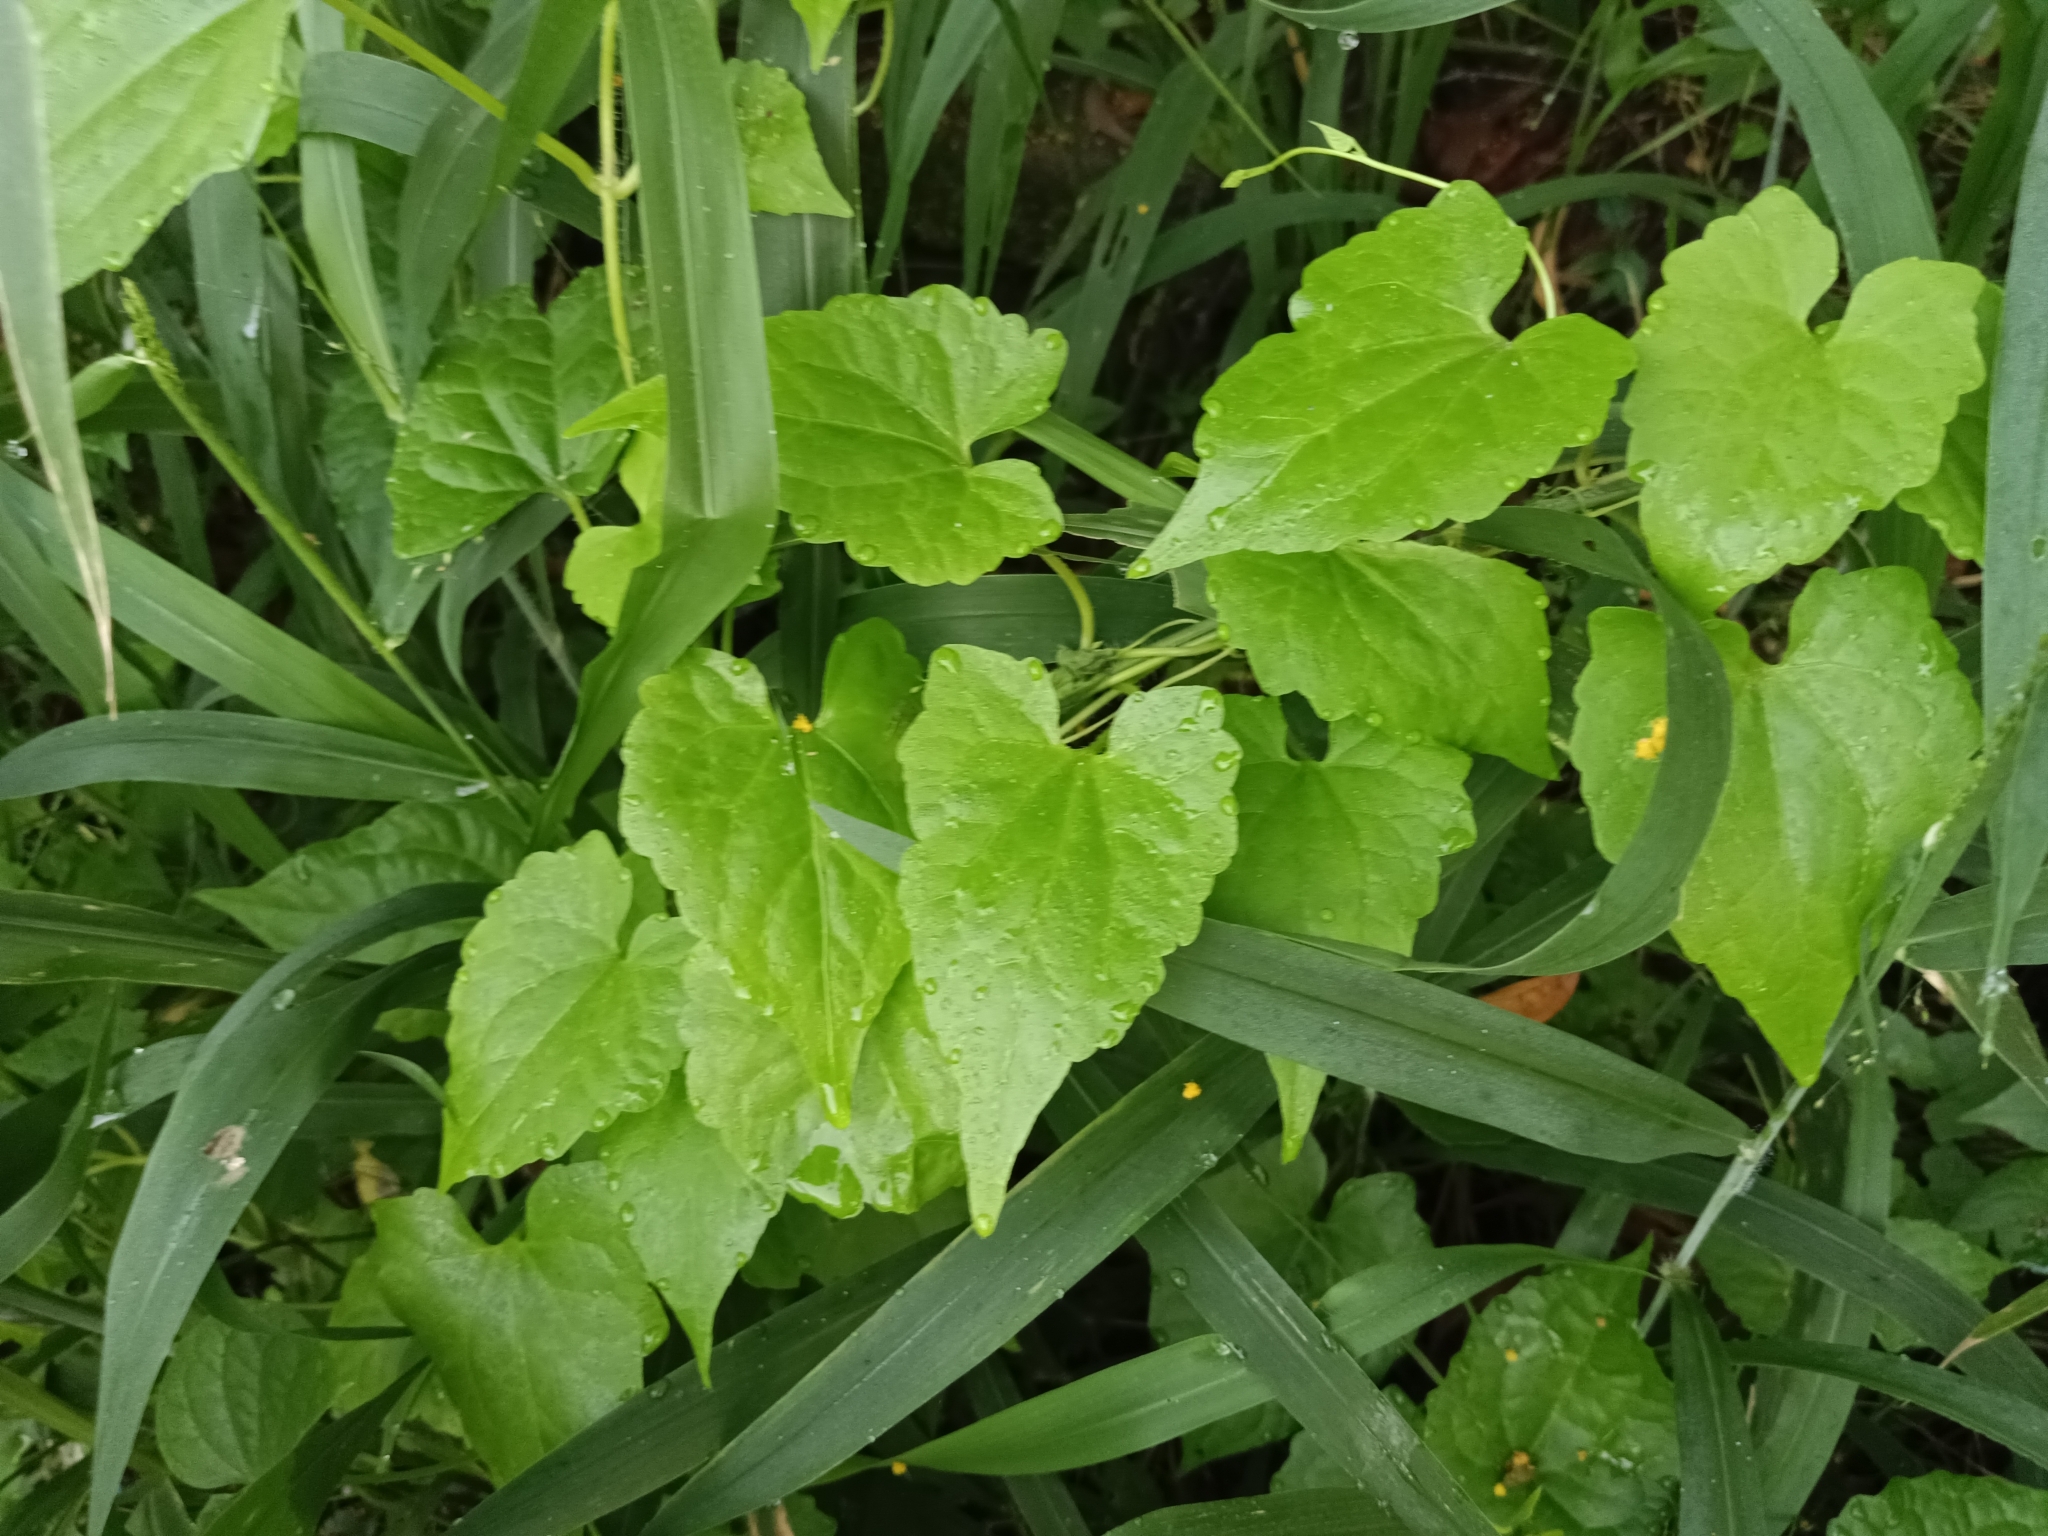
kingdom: Plantae
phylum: Tracheophyta
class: Magnoliopsida
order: Asterales
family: Asteraceae
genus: Mikania
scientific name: Mikania micrantha
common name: Mile-a-minute
